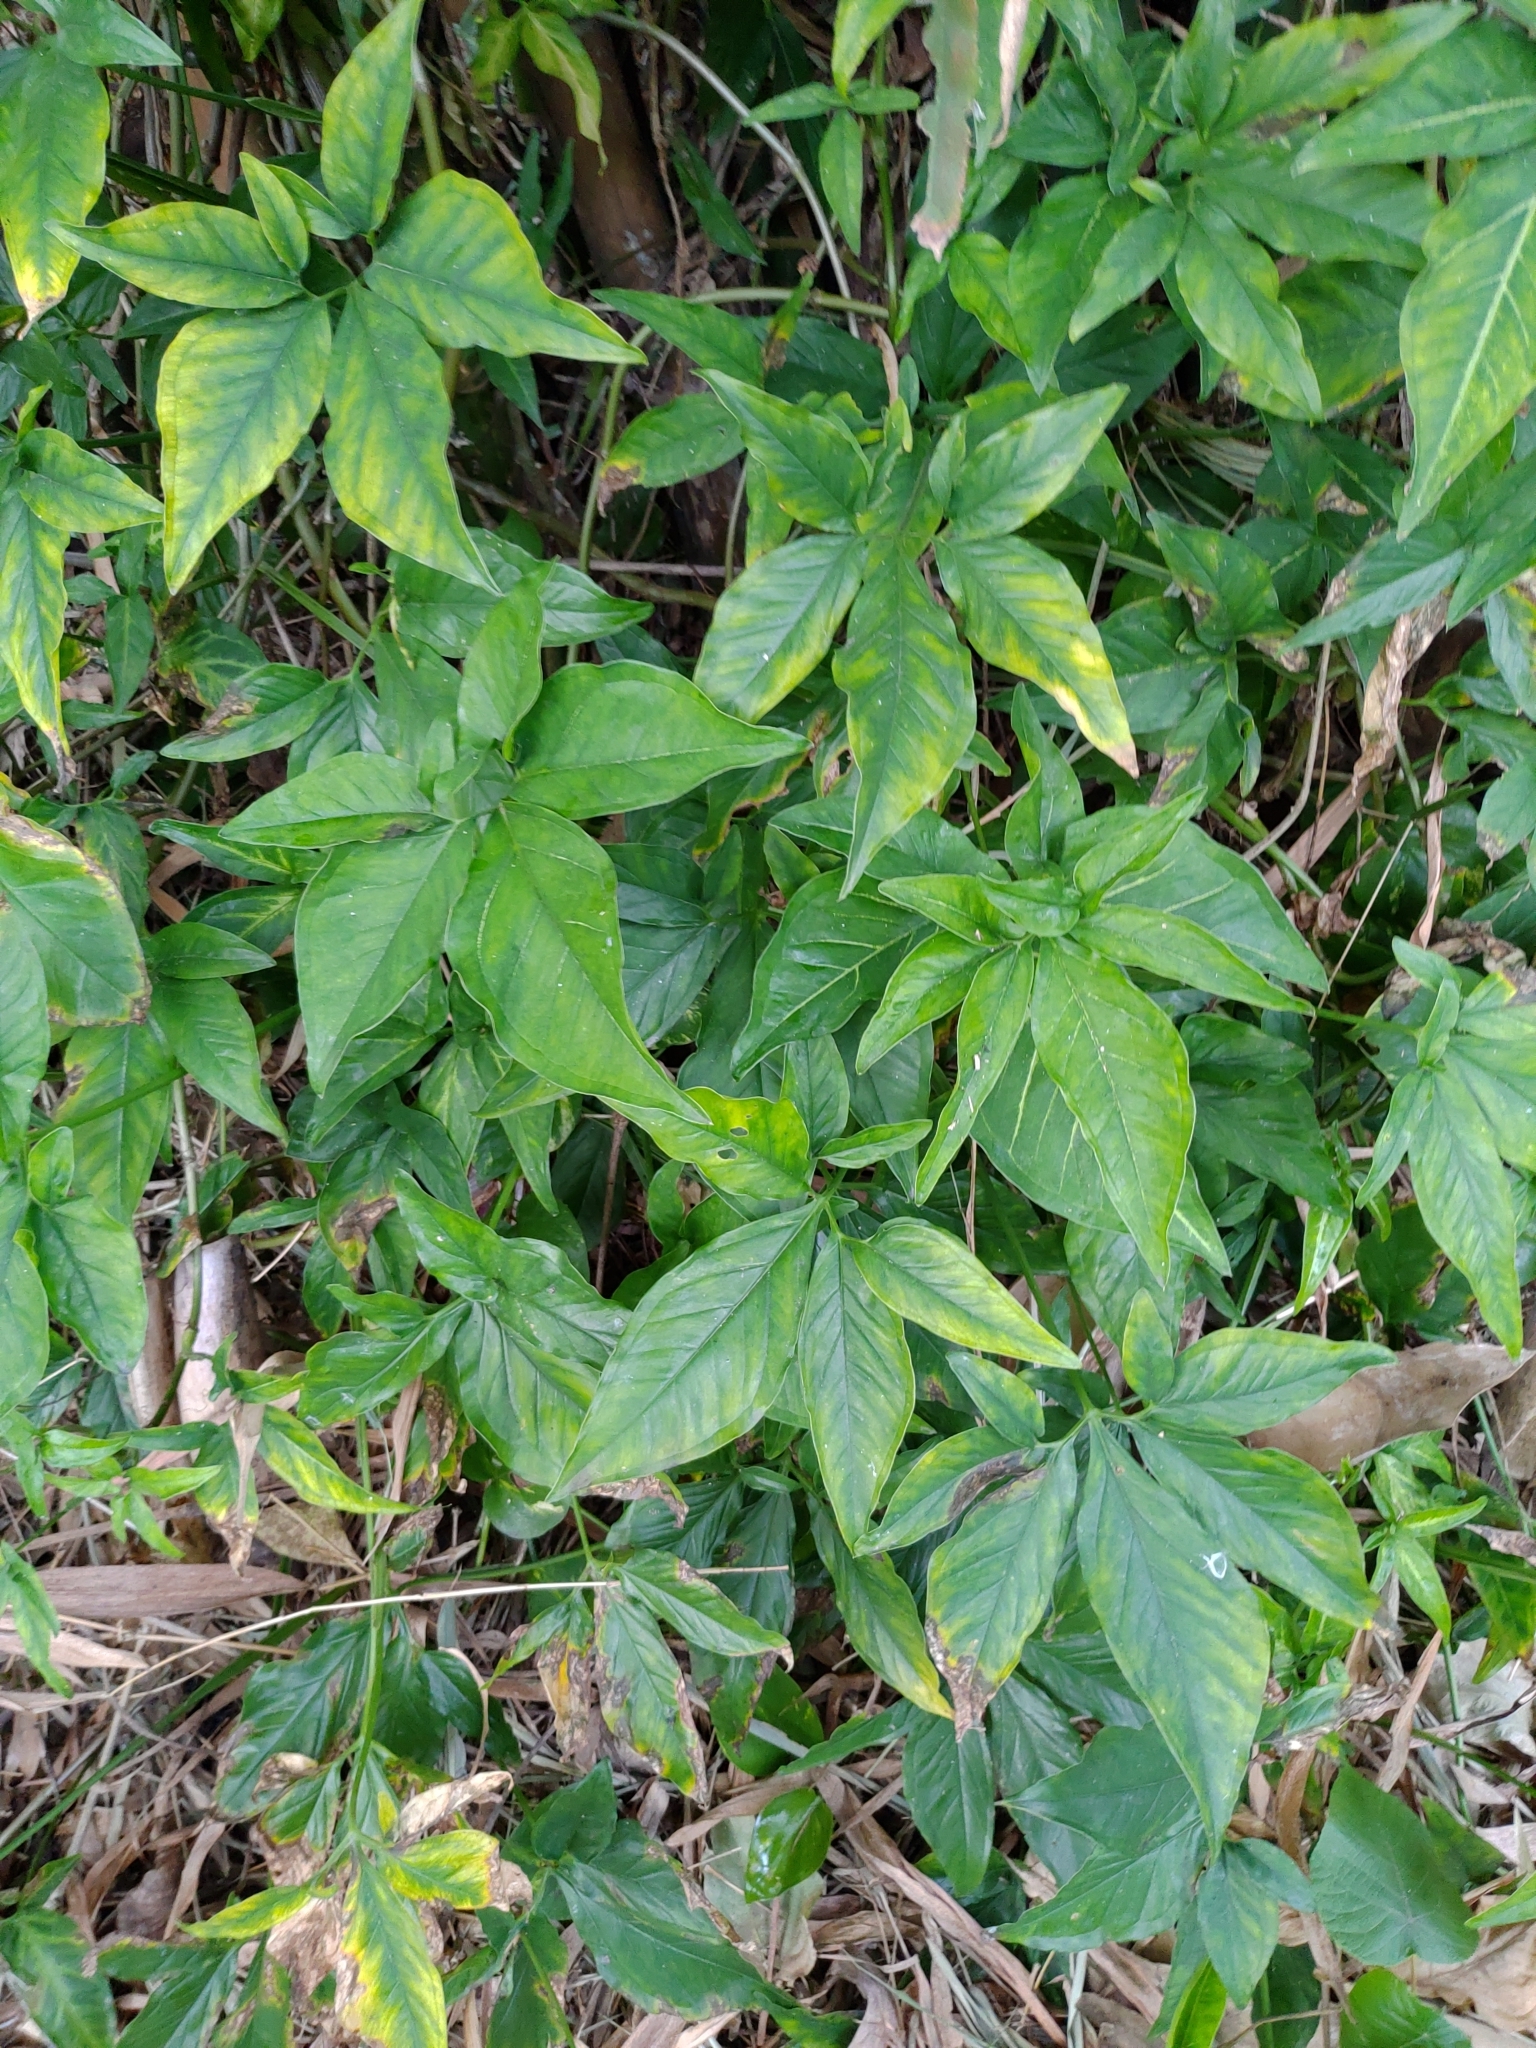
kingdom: Plantae
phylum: Tracheophyta
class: Liliopsida
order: Alismatales
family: Araceae
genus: Syngonium
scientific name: Syngonium angustatum
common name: Fivefingers
